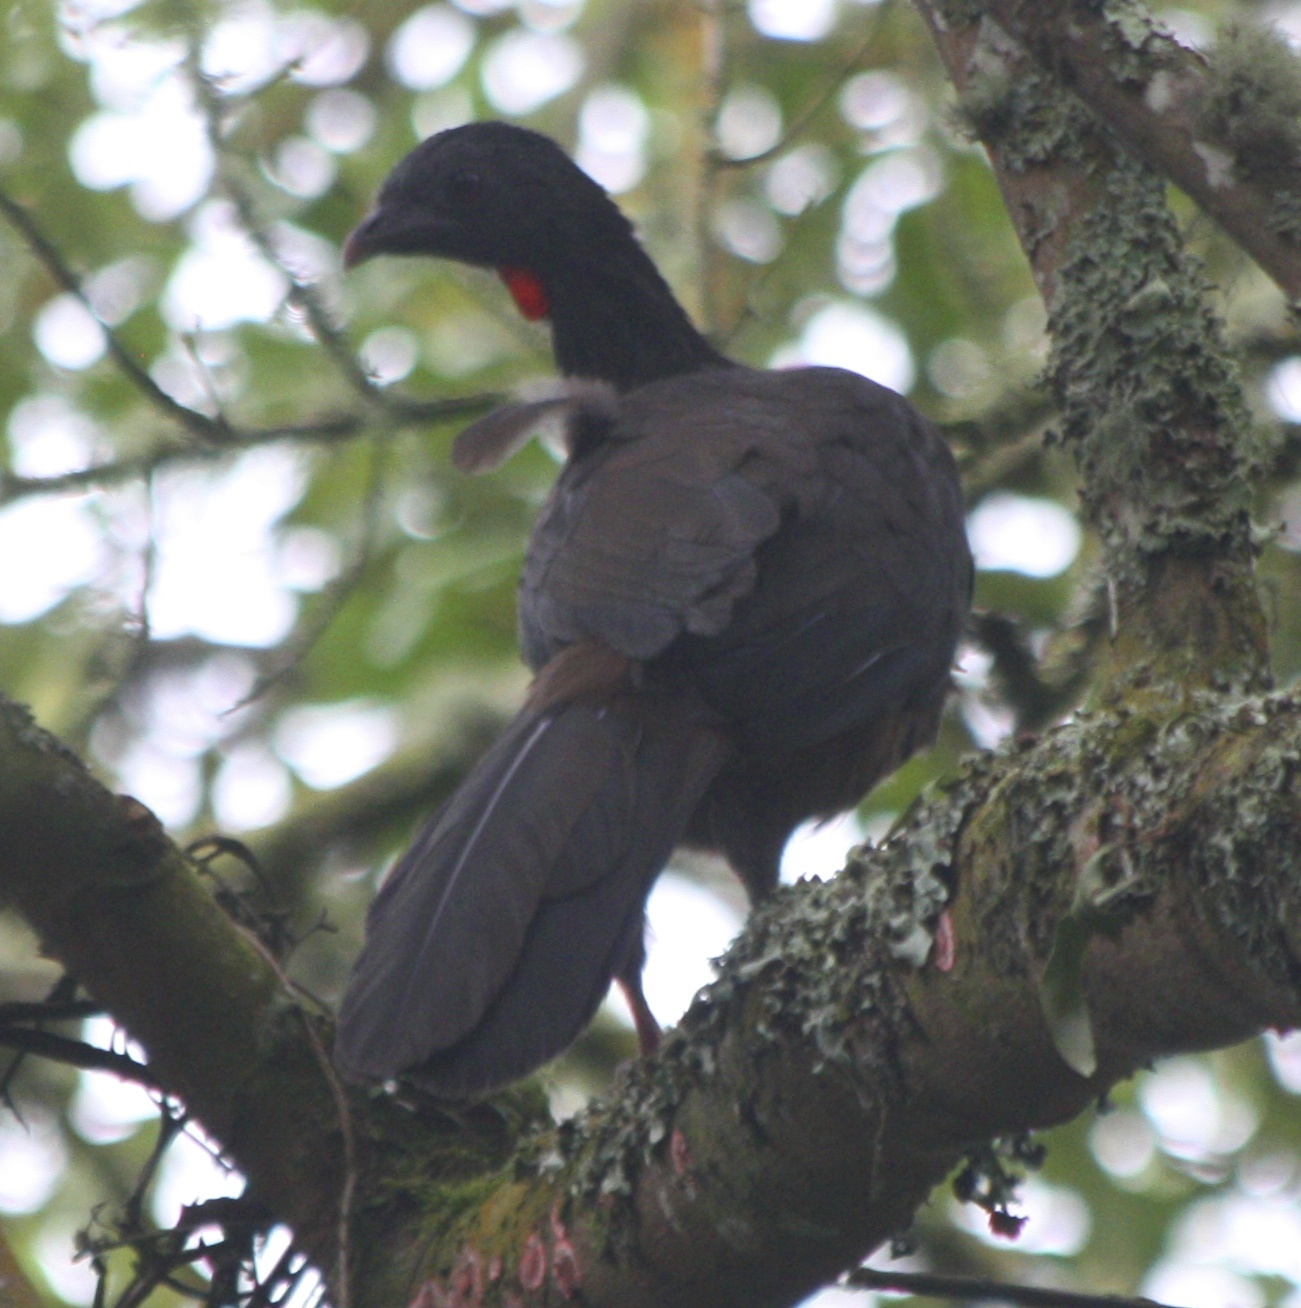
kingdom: Animalia
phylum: Chordata
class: Aves
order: Galliformes
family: Cracidae
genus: Penelope
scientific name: Penelope montagnii
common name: Andean guan
